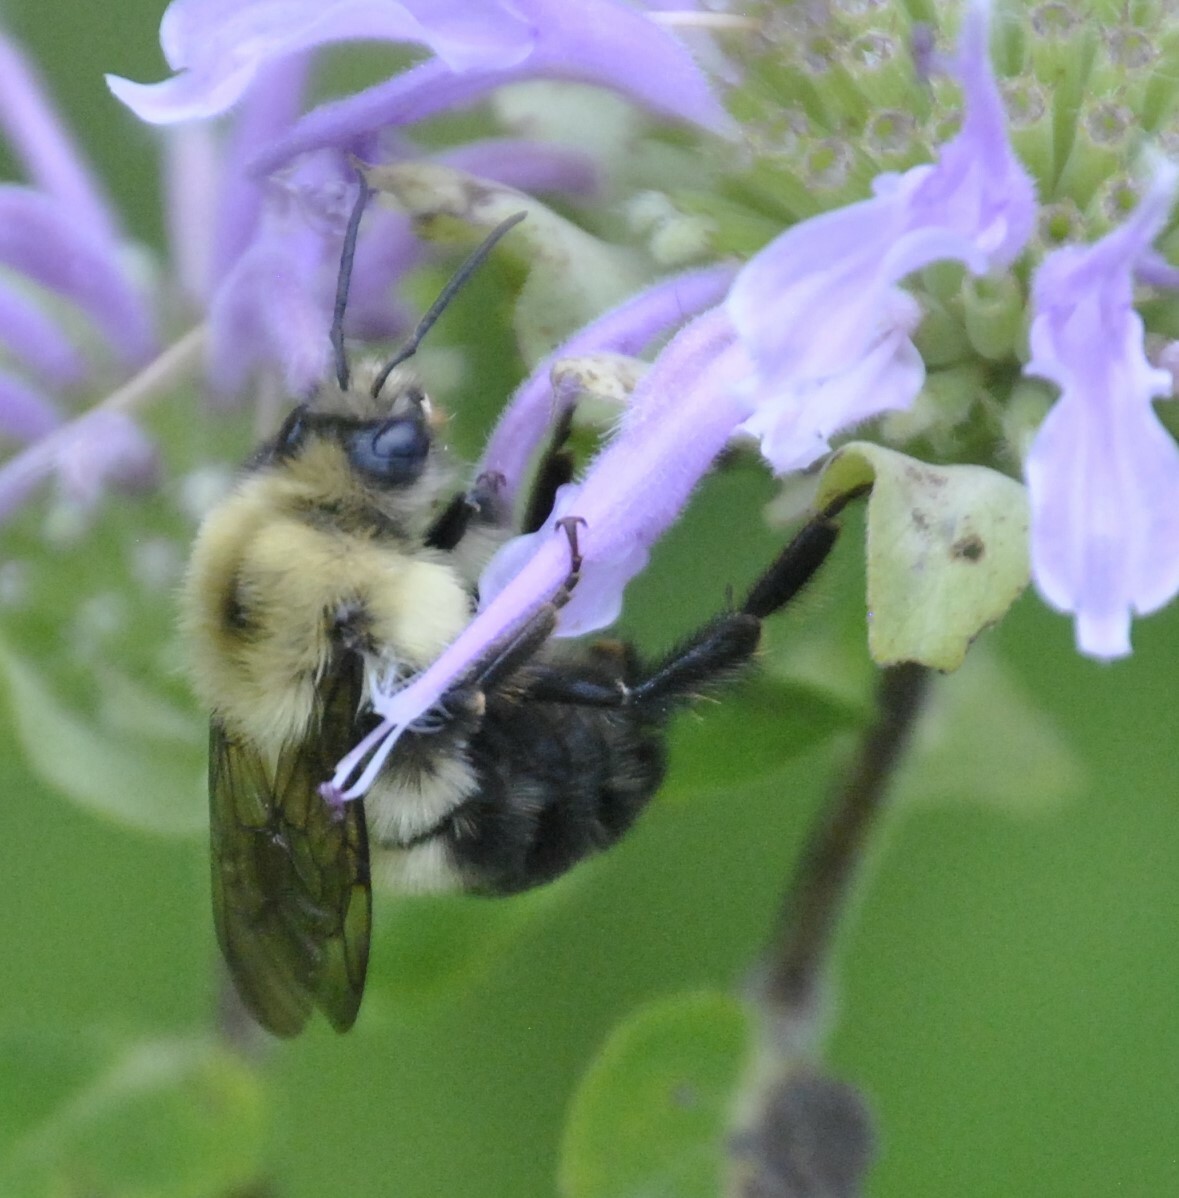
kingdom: Animalia
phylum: Arthropoda
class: Insecta
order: Hymenoptera
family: Apidae
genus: Bombus
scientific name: Bombus bimaculatus
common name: Two-spotted bumble bee
